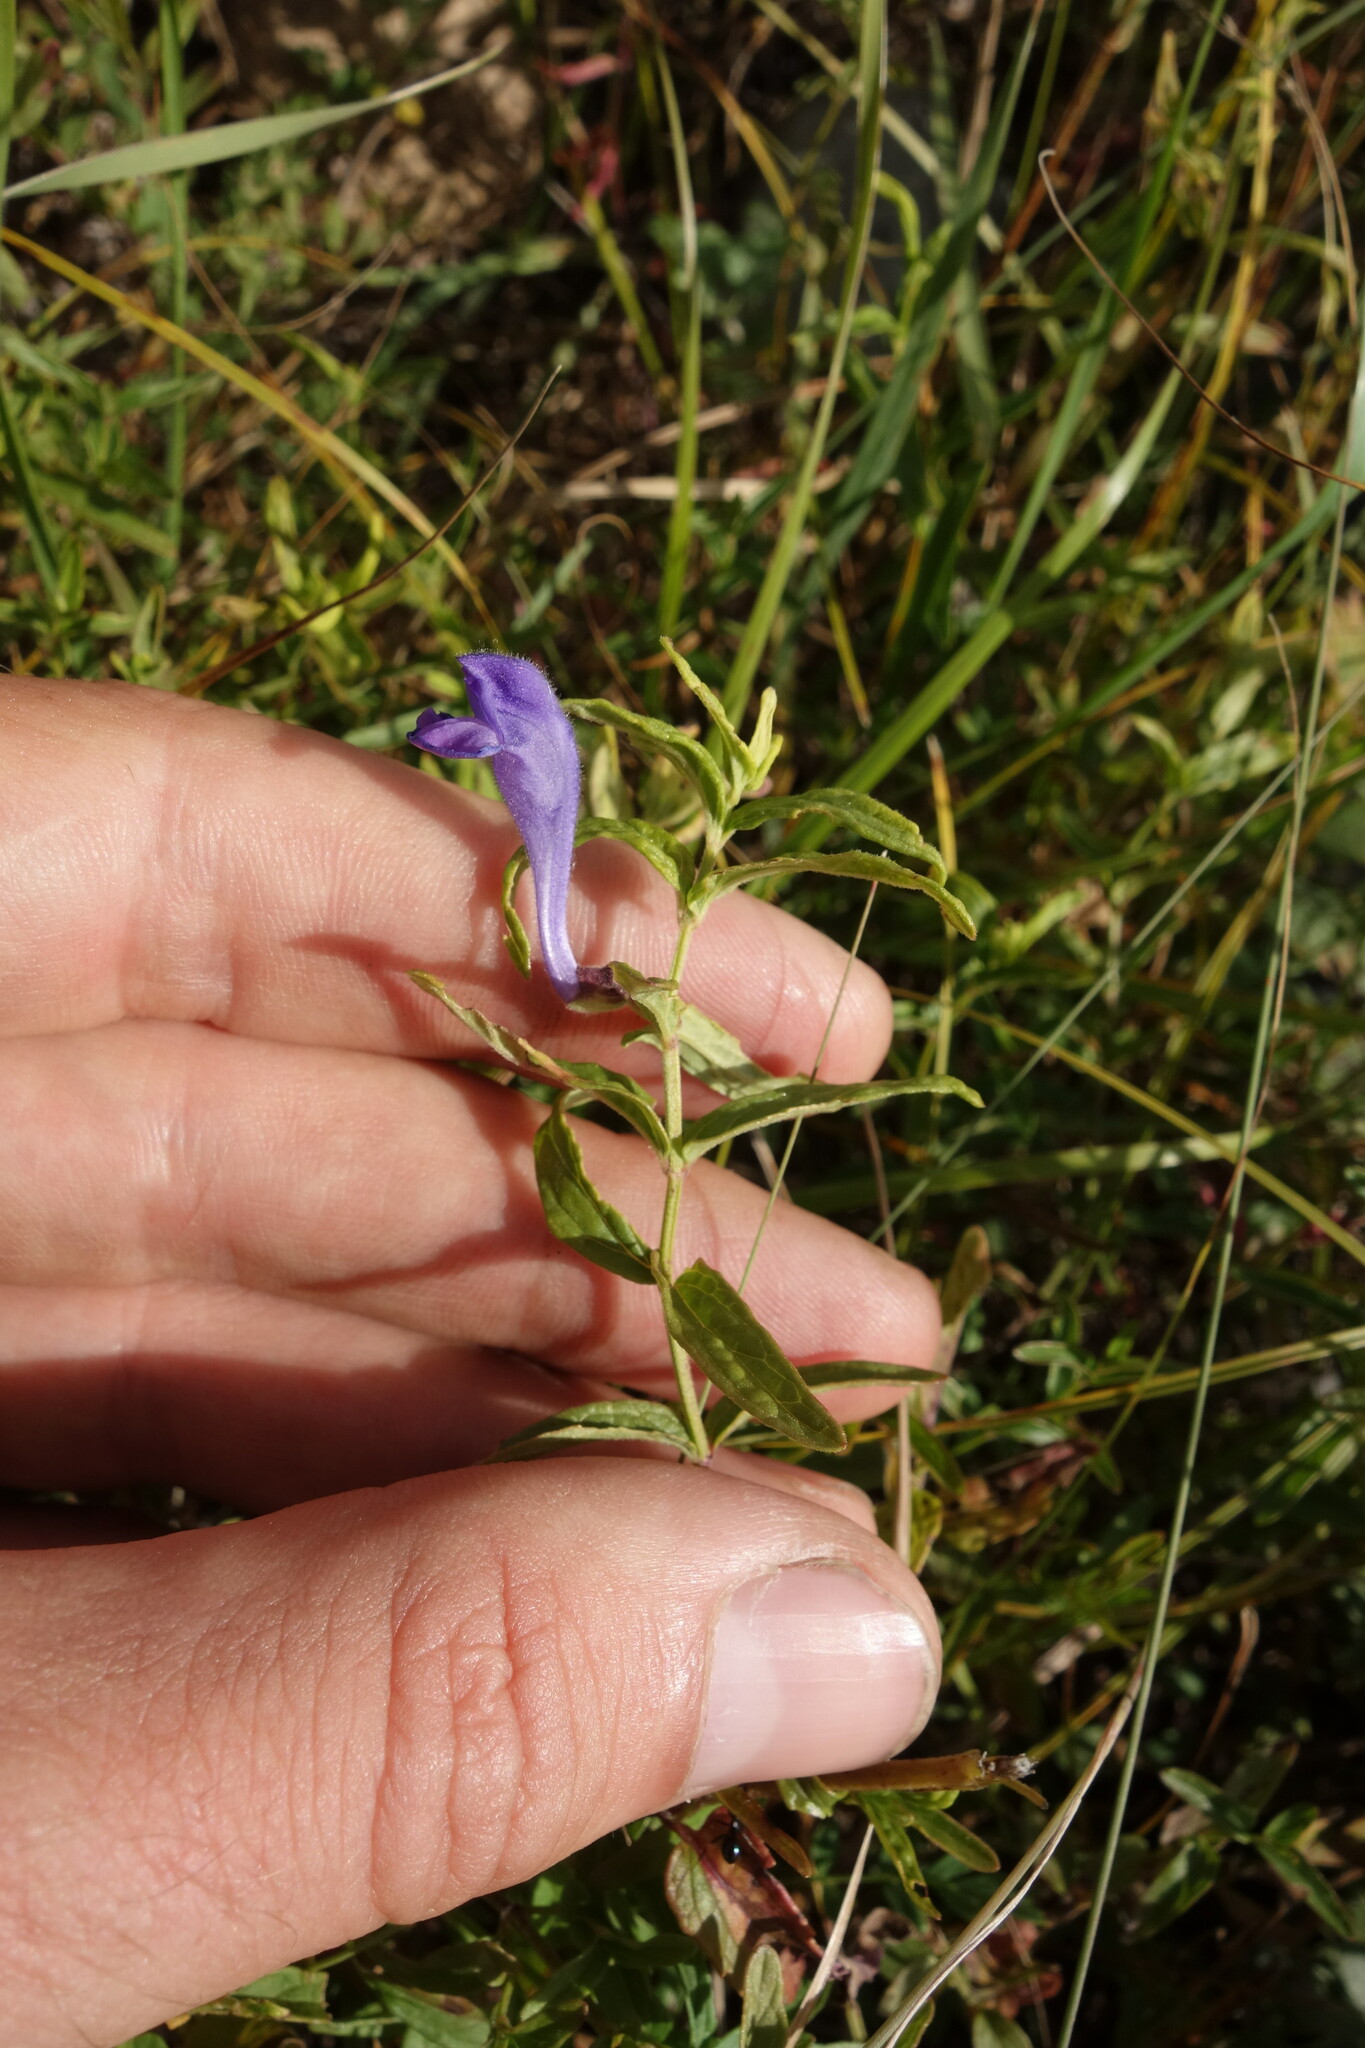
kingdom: Plantae
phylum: Tracheophyta
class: Magnoliopsida
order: Lamiales
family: Lamiaceae
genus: Scutellaria
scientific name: Scutellaria scordiifolia
